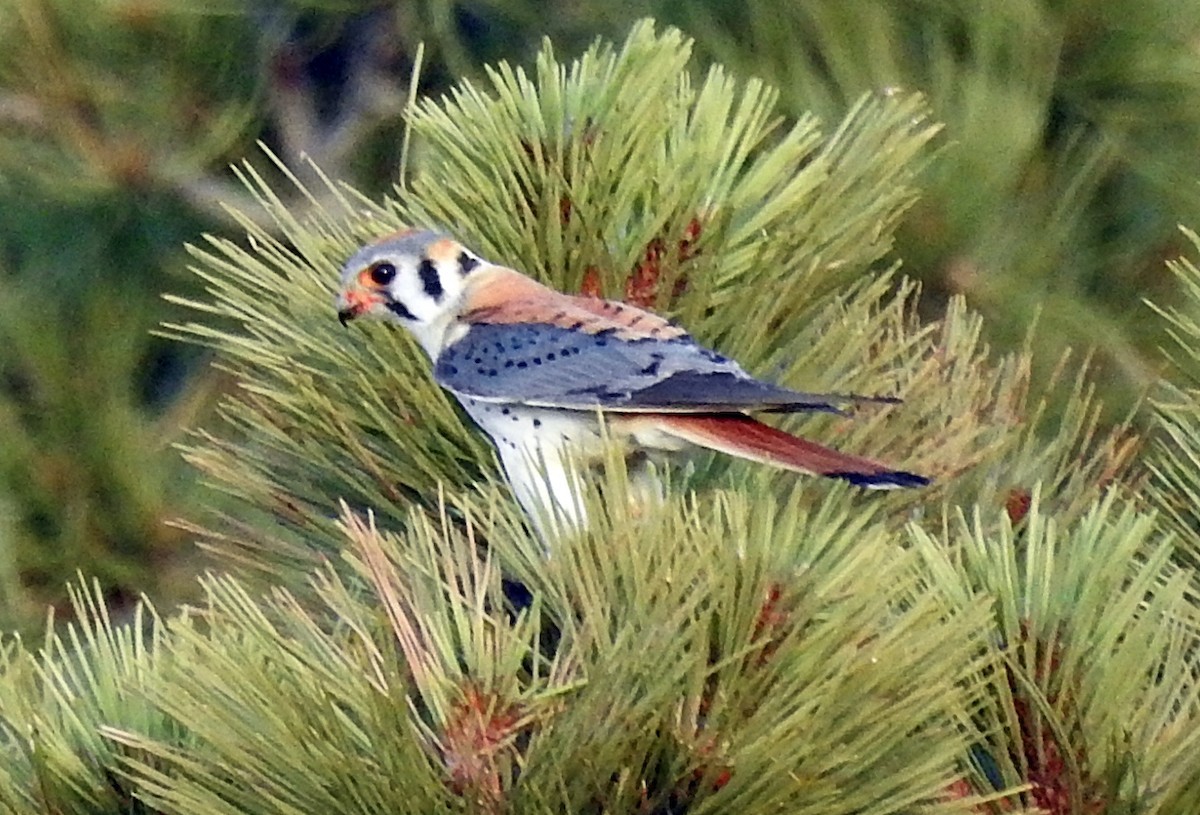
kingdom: Animalia
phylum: Chordata
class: Aves
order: Falconiformes
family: Falconidae
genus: Falco
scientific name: Falco sparverius
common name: American kestrel
